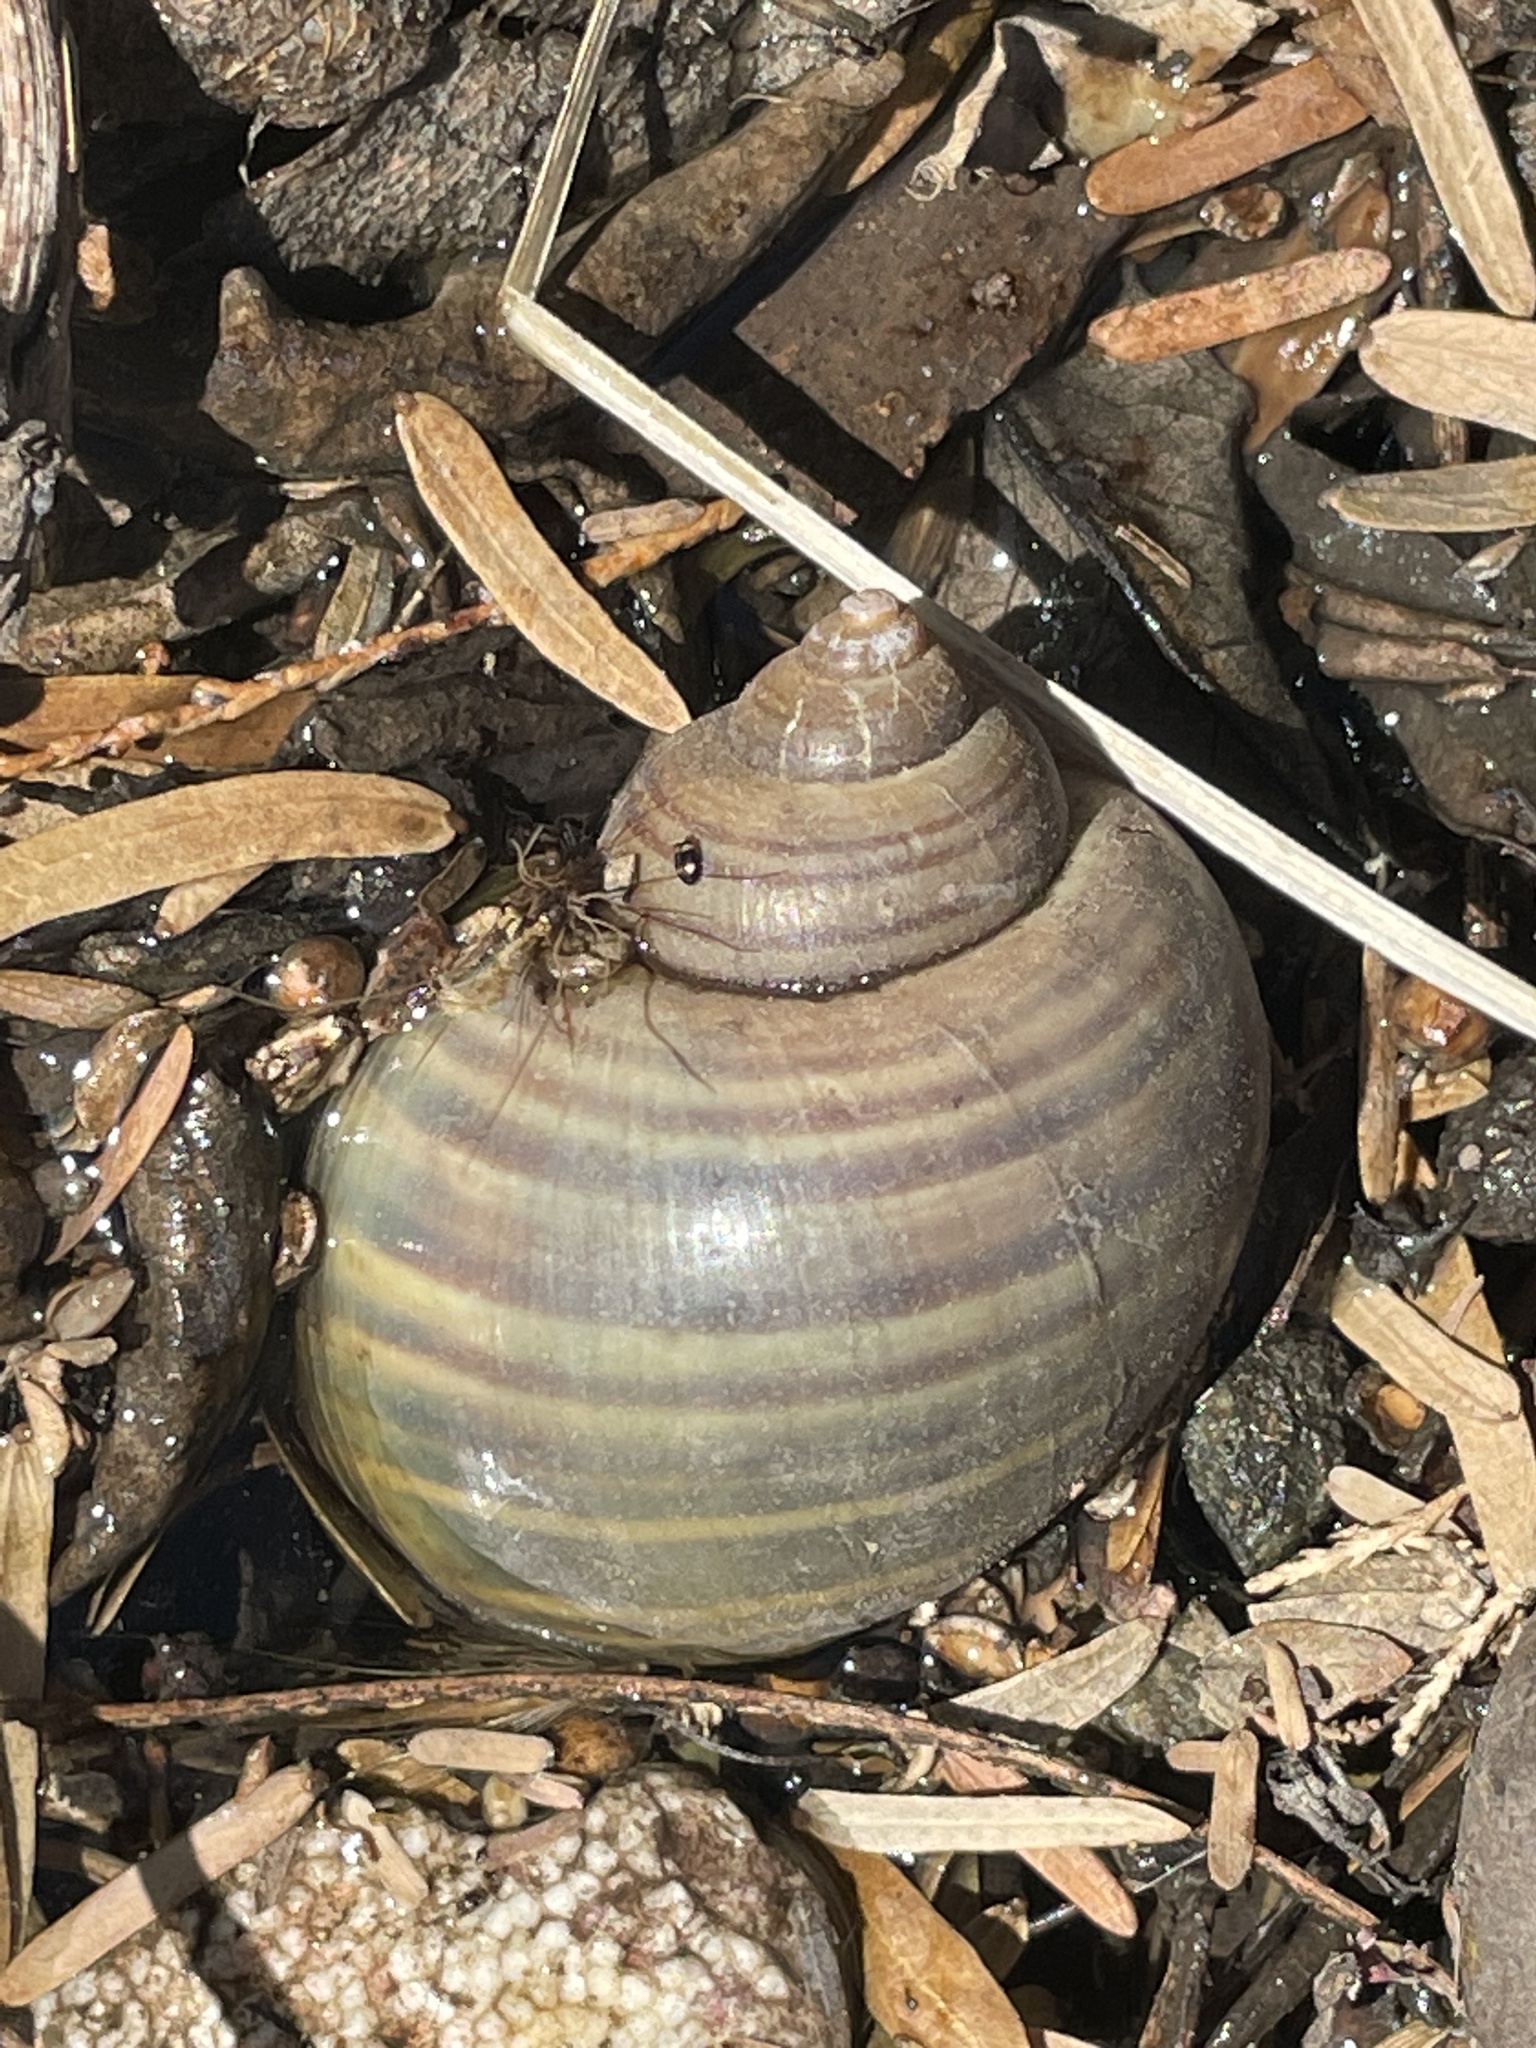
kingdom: Animalia
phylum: Mollusca
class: Gastropoda
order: Architaenioglossa
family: Ampullariidae
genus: Pomacea
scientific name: Pomacea canaliculata
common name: Channeled applesnail
